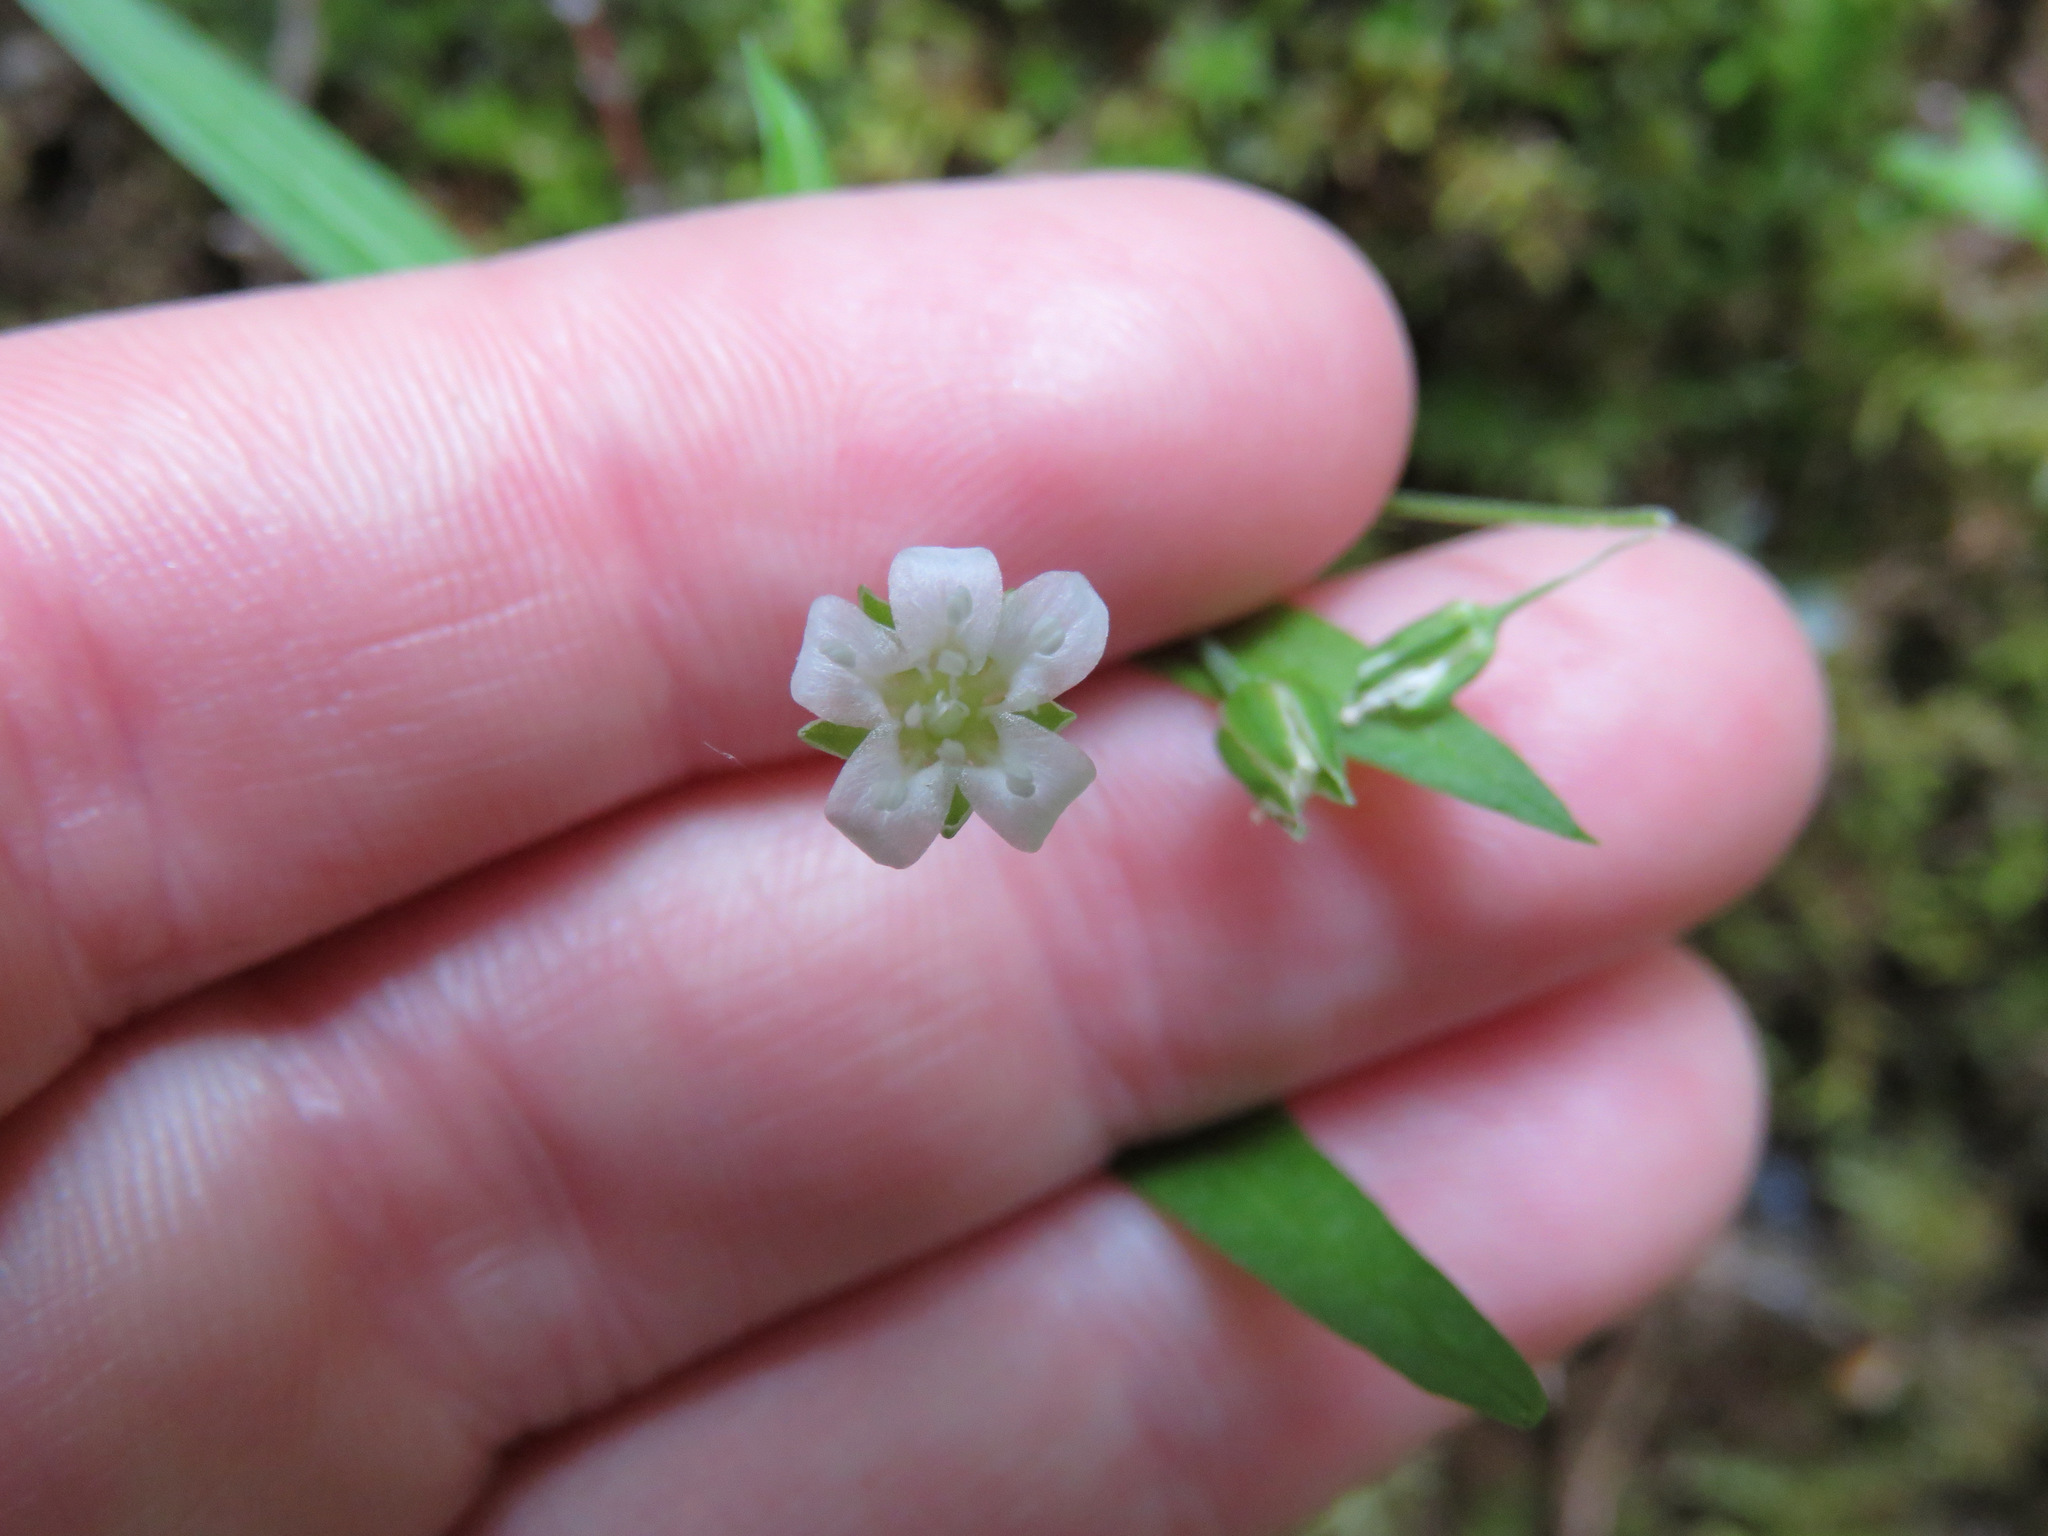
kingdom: Plantae
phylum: Tracheophyta
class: Magnoliopsida
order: Caryophyllales
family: Caryophyllaceae
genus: Moehringia
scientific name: Moehringia macrophylla
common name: Big-leaf sandwort
